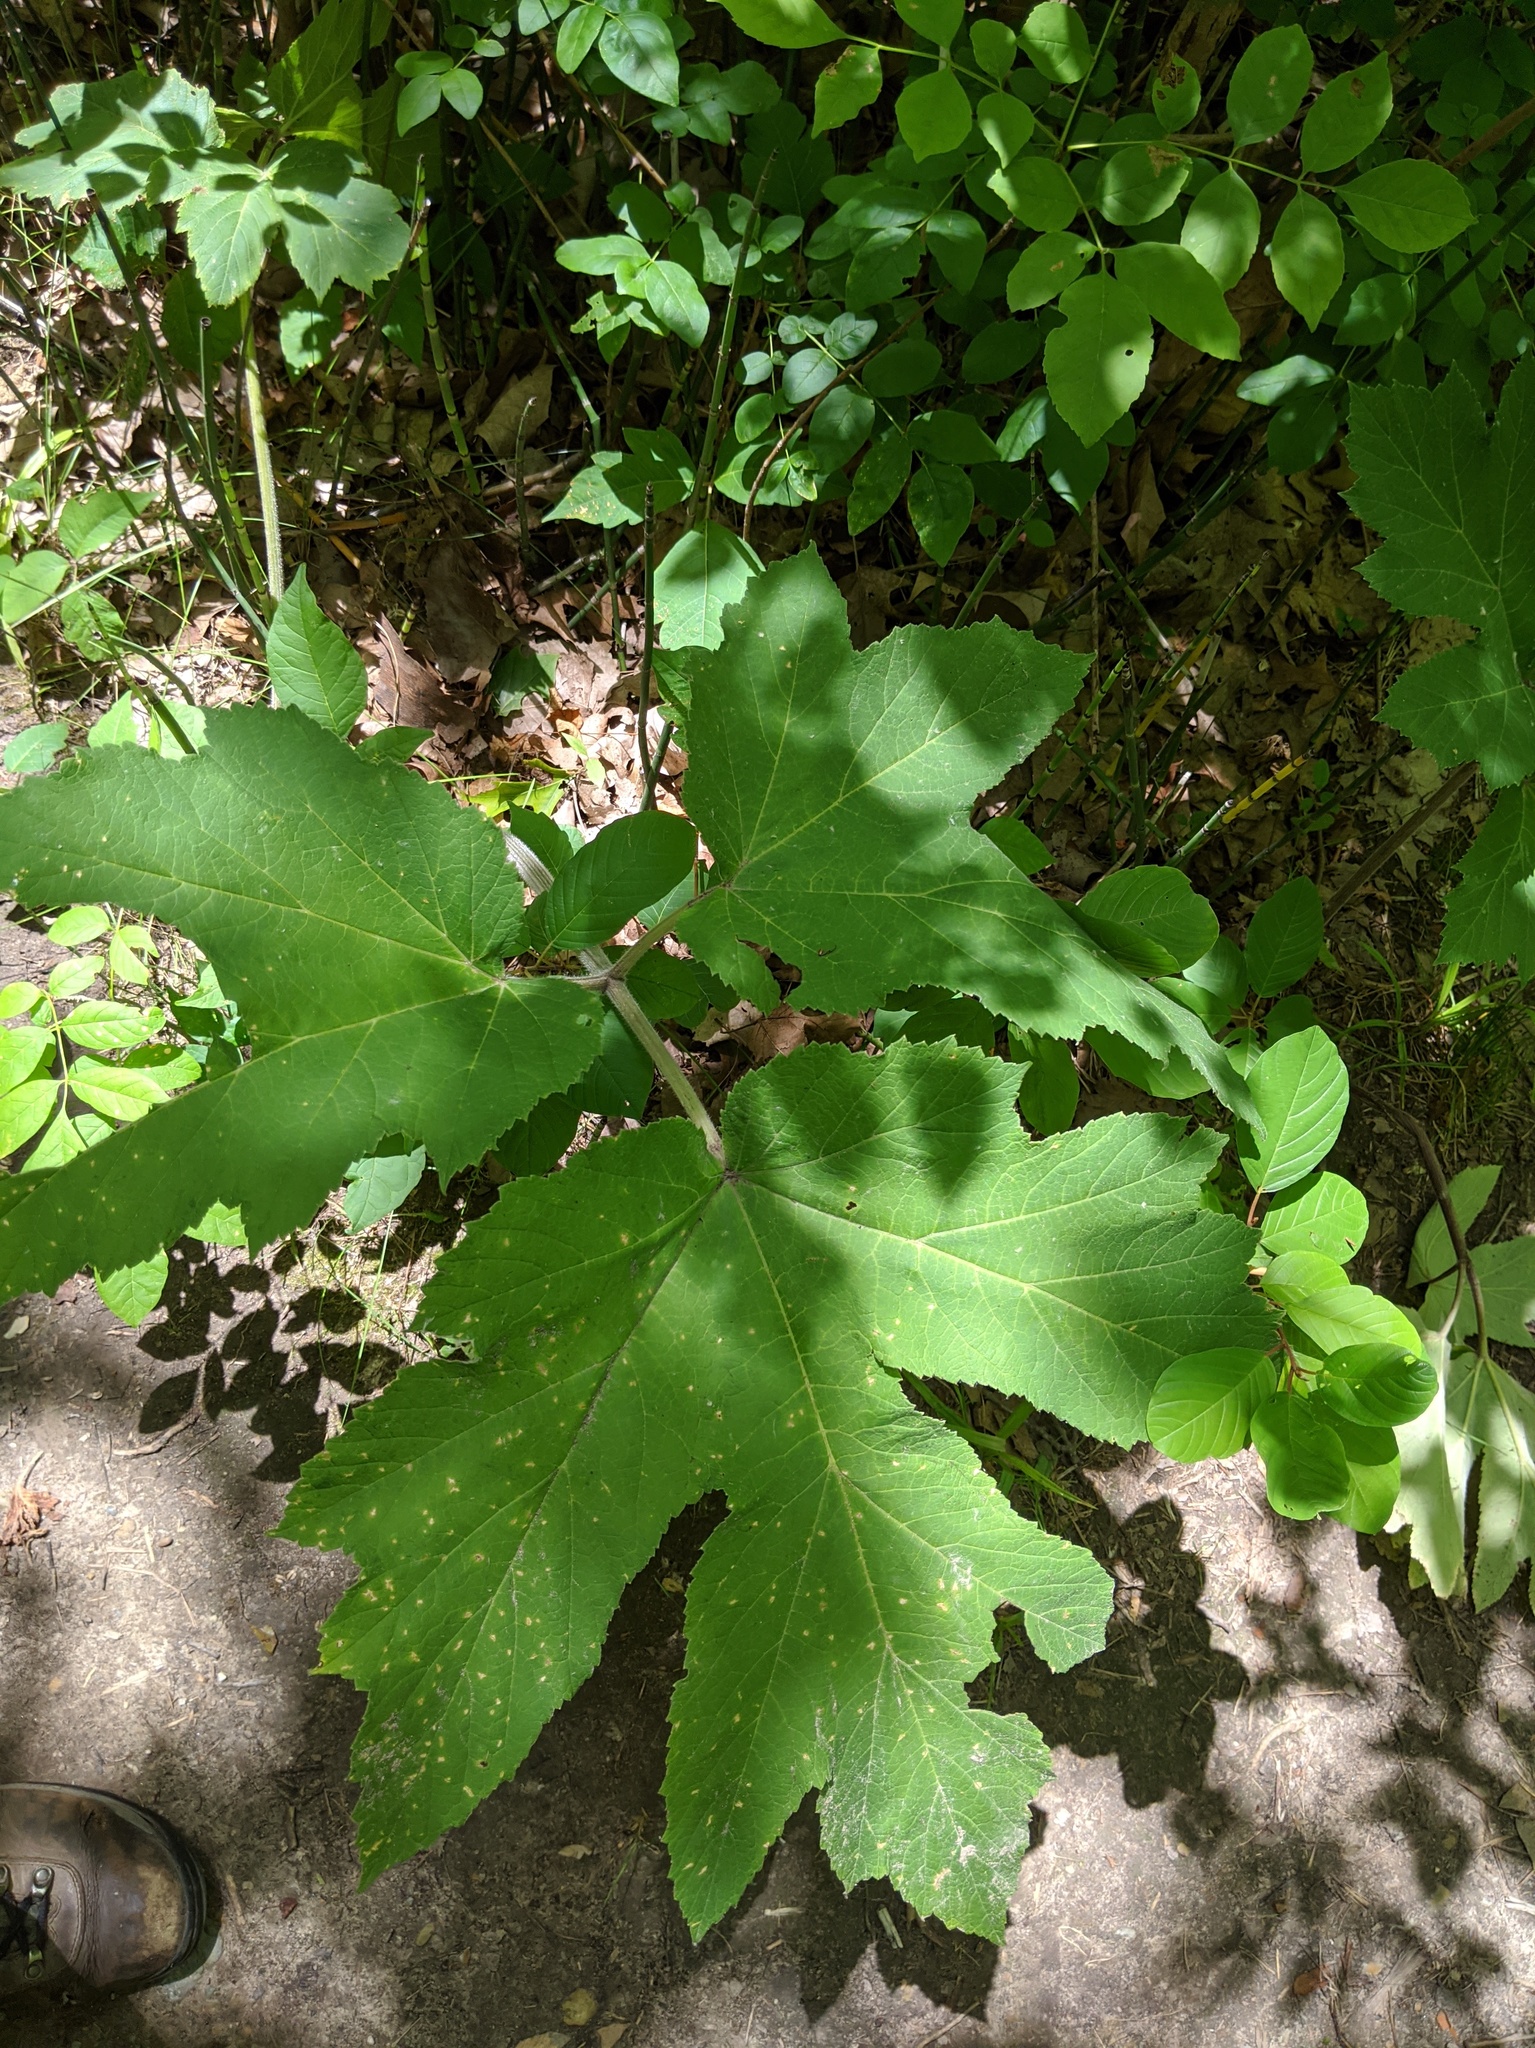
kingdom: Plantae
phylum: Tracheophyta
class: Magnoliopsida
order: Apiales
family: Apiaceae
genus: Heracleum
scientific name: Heracleum maximum
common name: American cow parsnip
